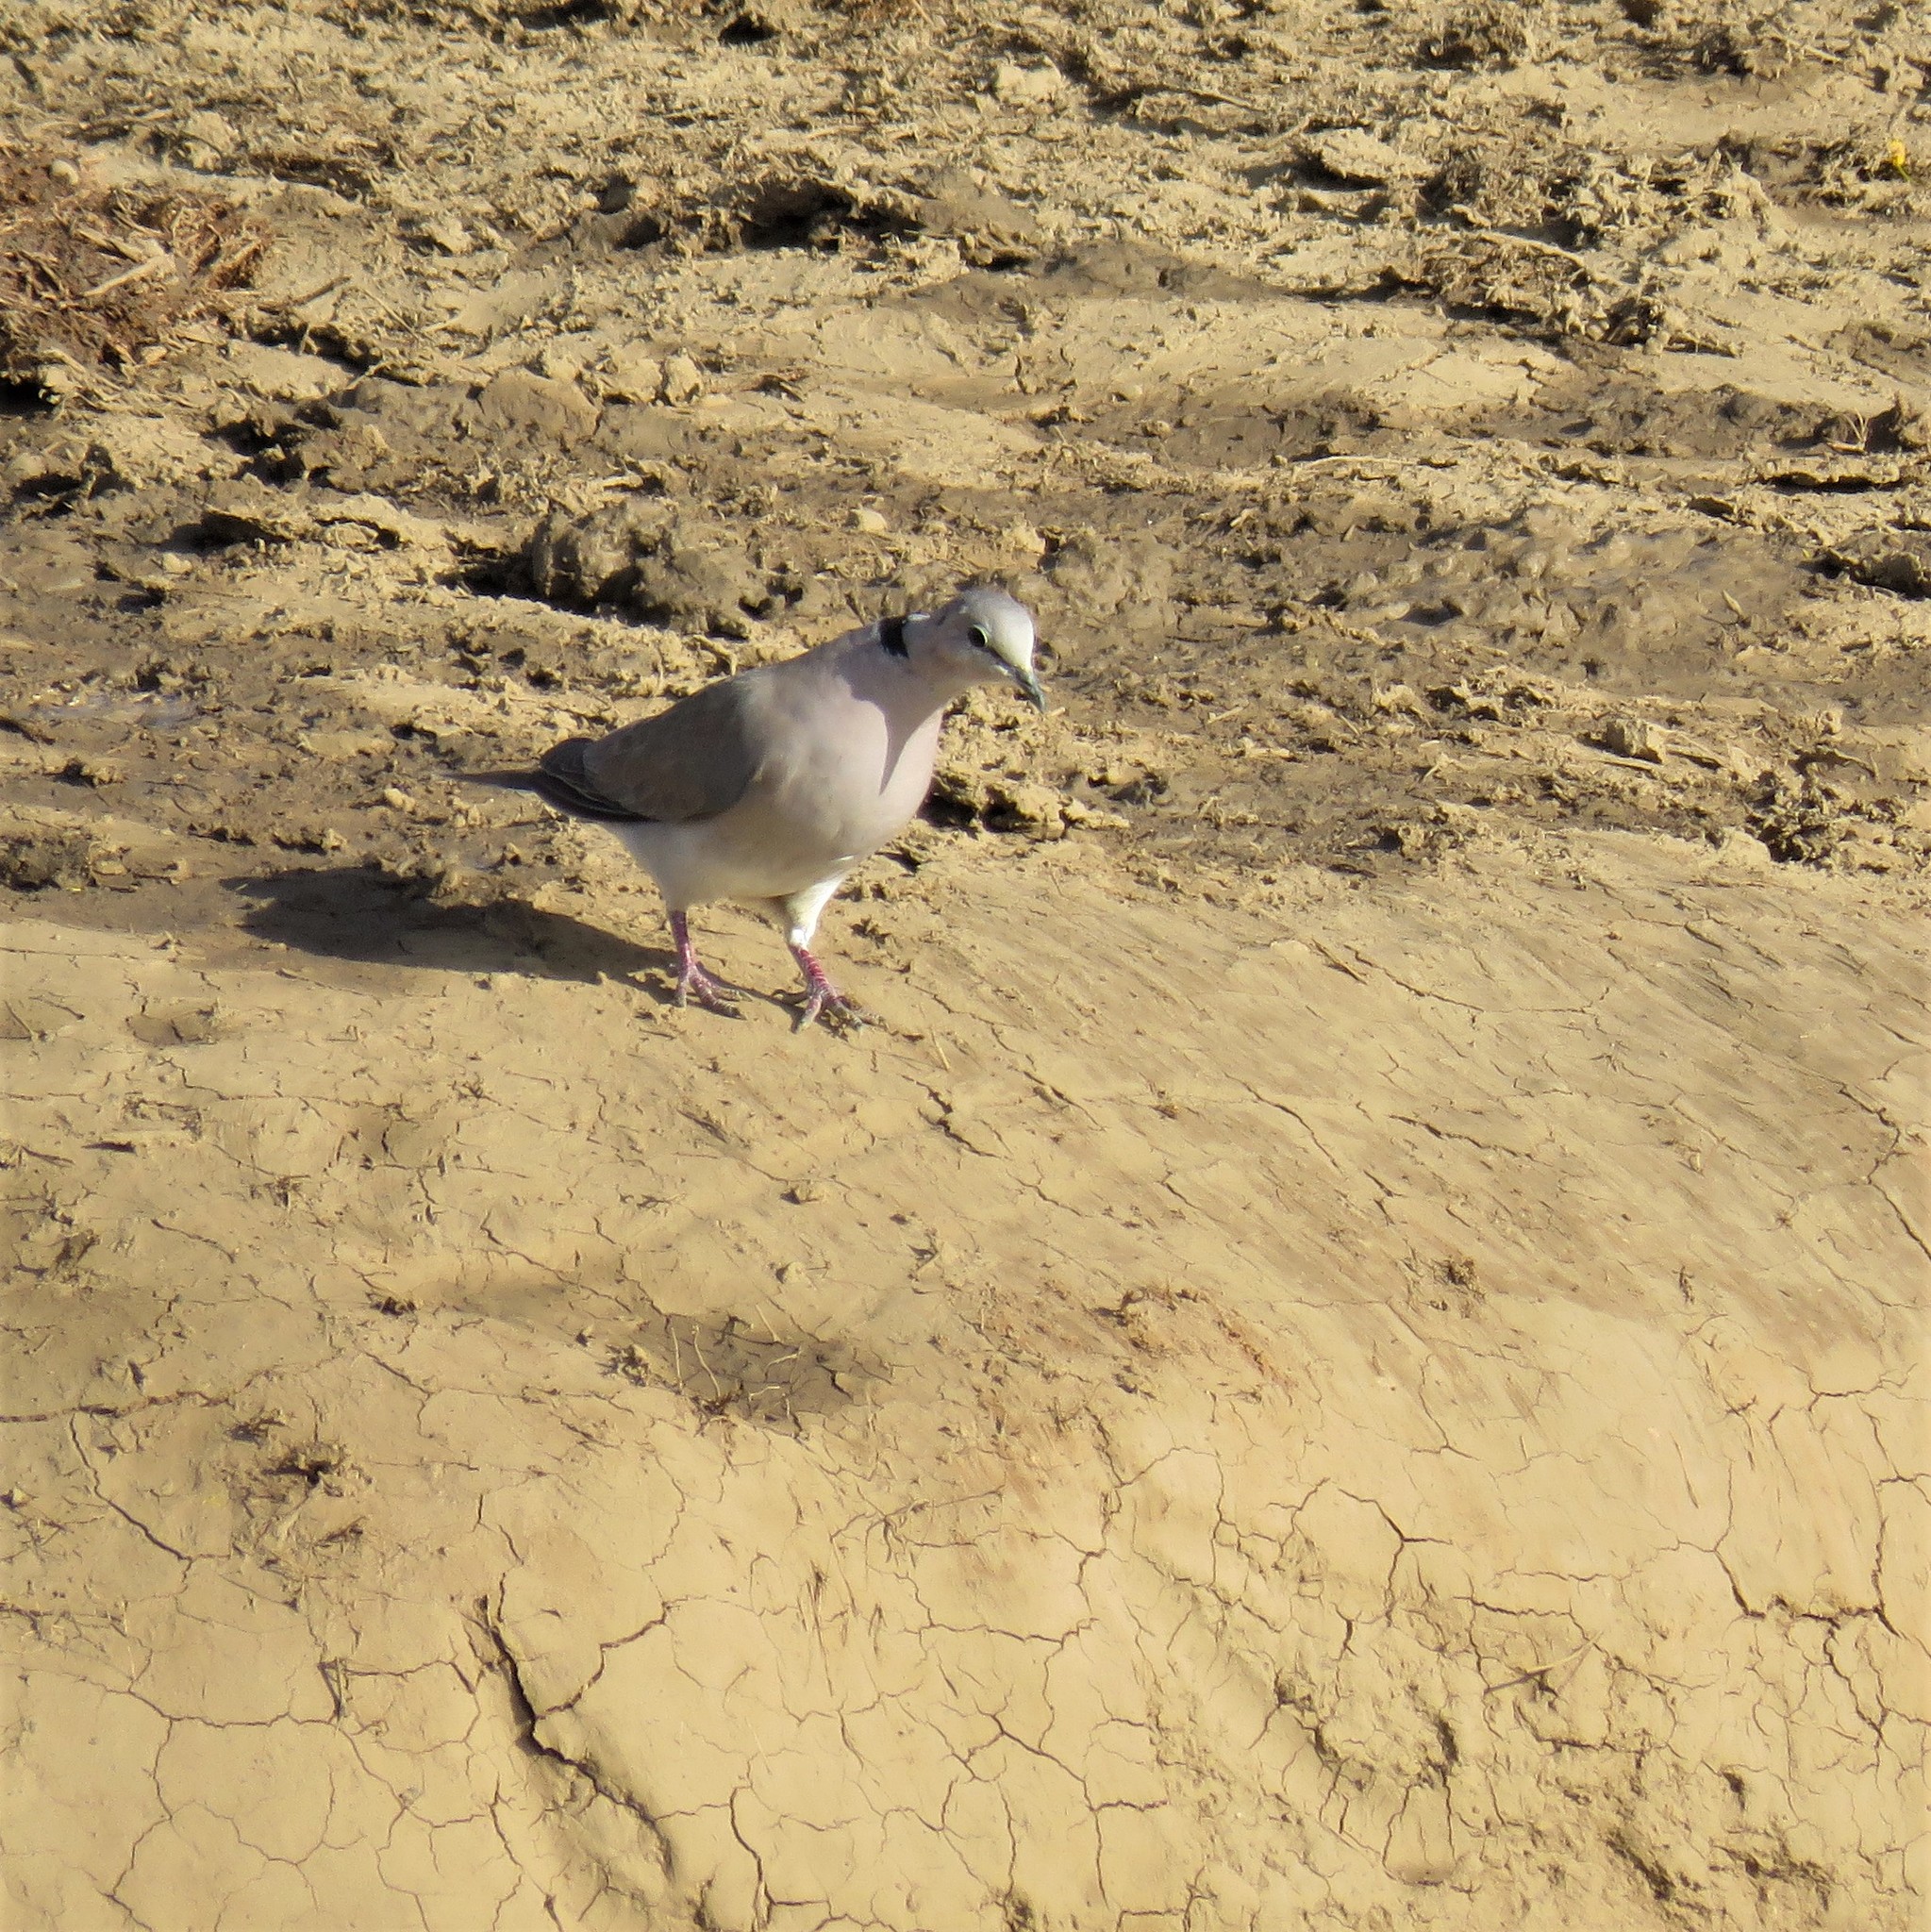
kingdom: Animalia
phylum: Chordata
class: Aves
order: Columbiformes
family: Columbidae
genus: Streptopelia
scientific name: Streptopelia capicola
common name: Ring-necked dove
